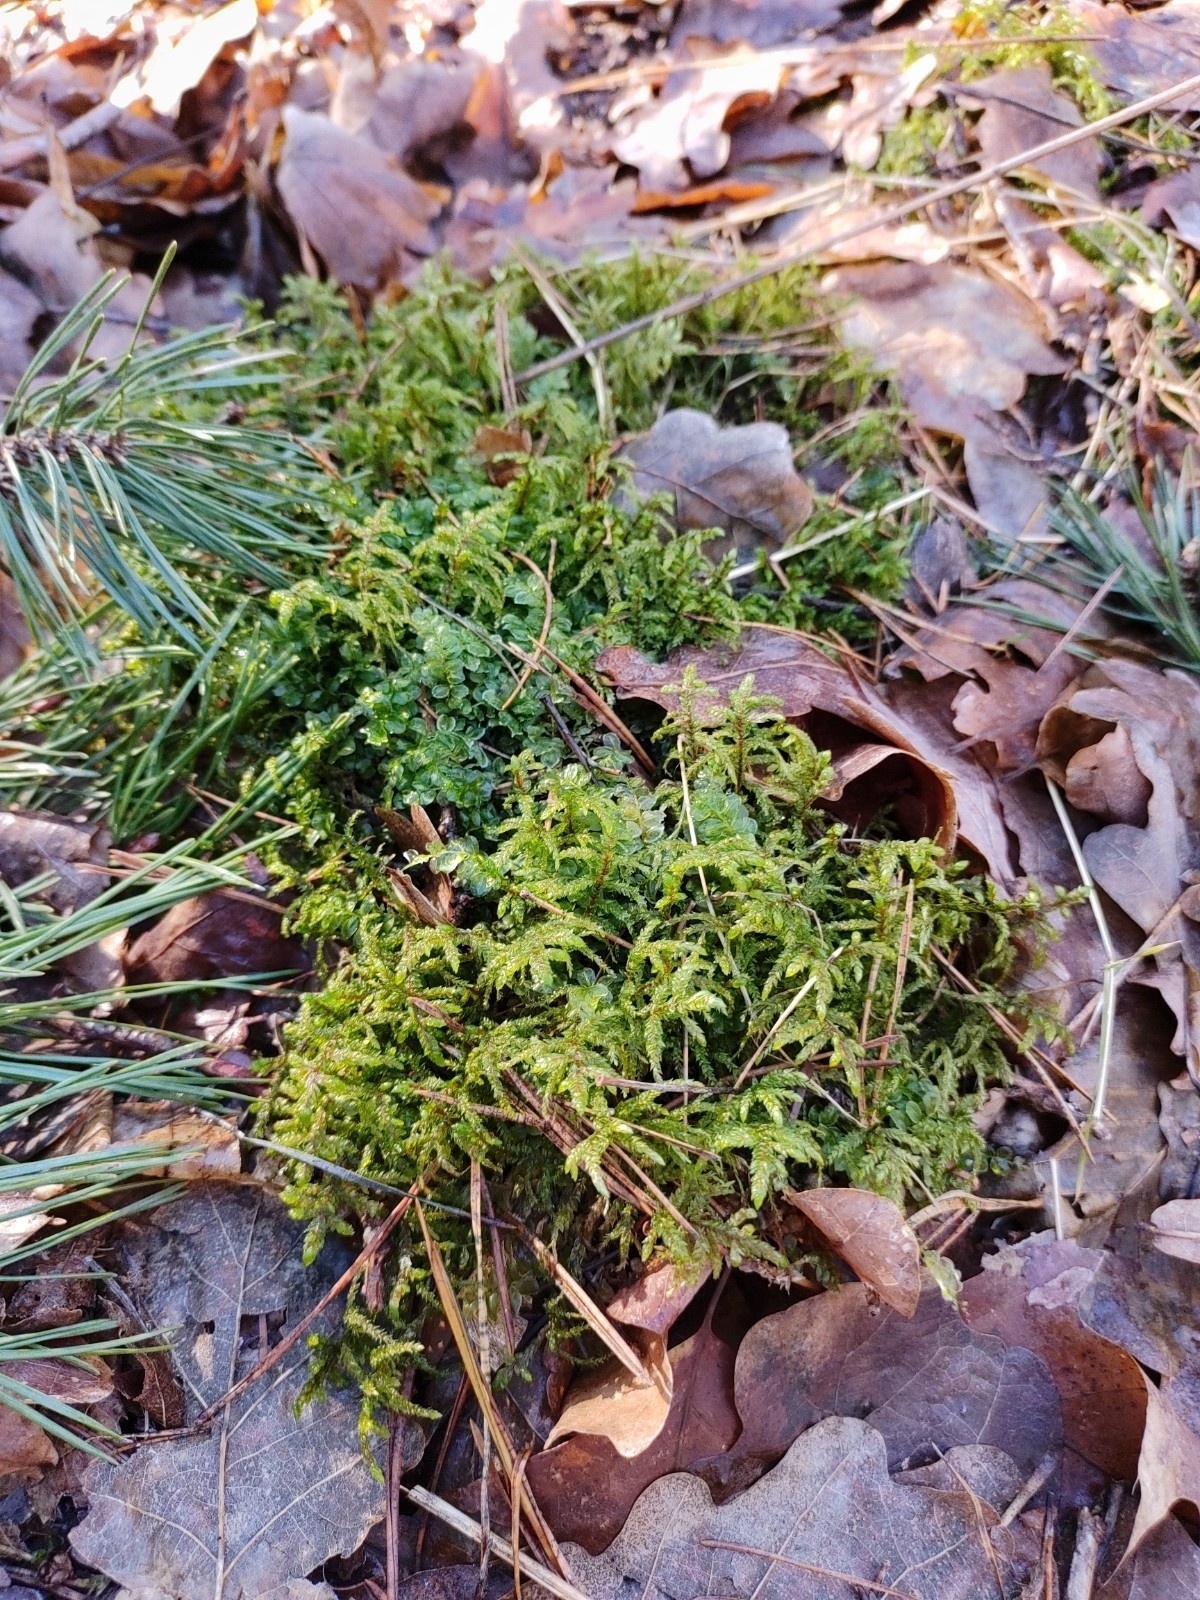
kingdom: Plantae
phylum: Bryophyta
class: Bryopsida
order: Hypnales
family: Hylocomiaceae
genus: Pleurozium
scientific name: Pleurozium schreberi
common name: Red-stemmed feather moss
